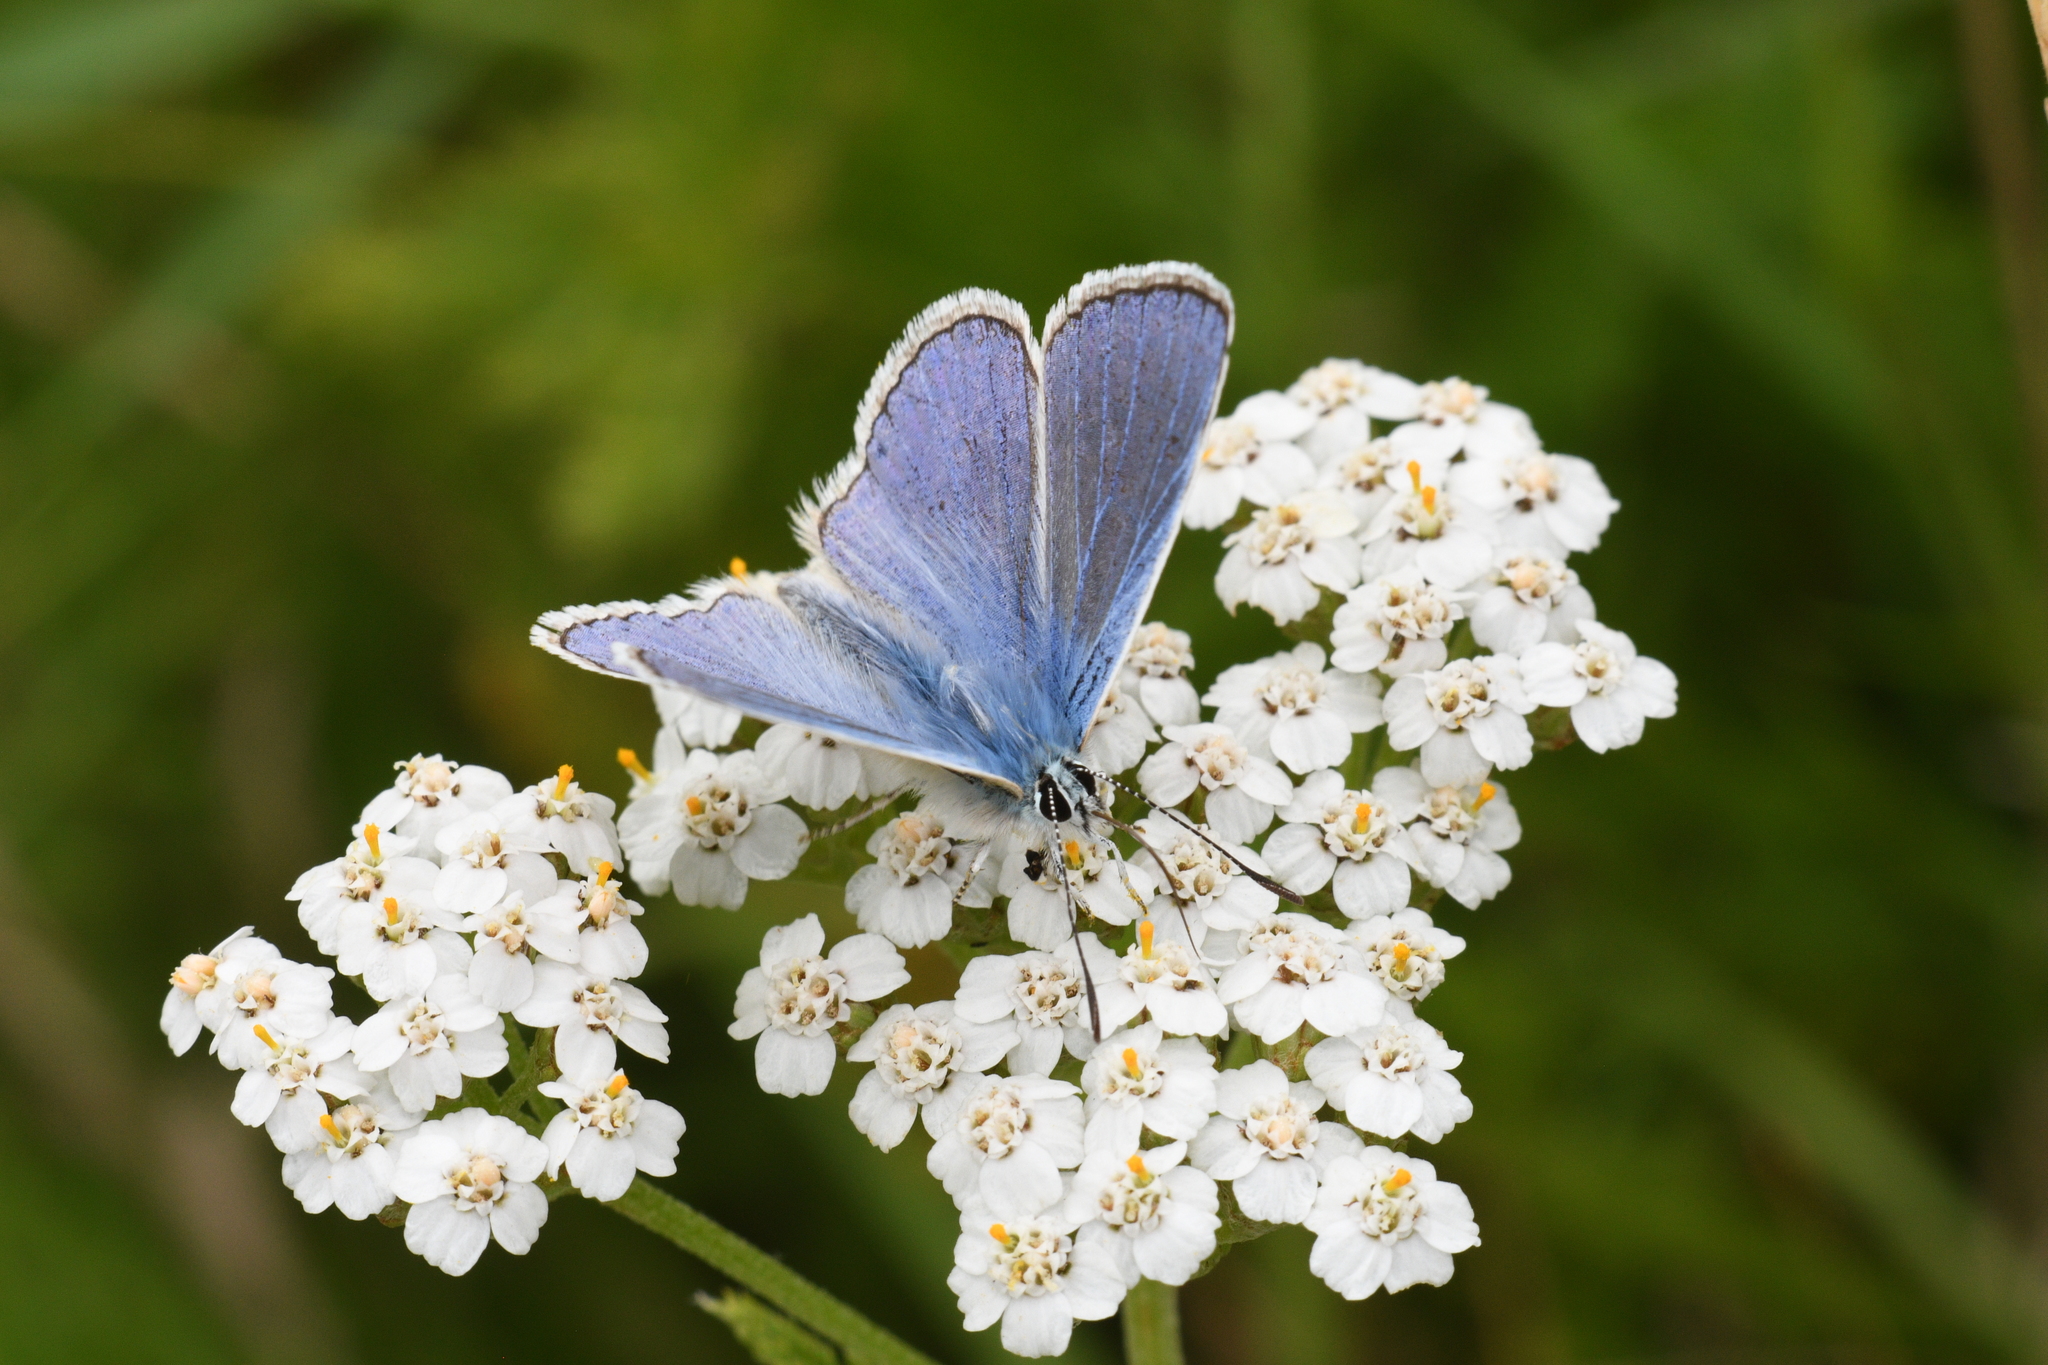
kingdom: Animalia
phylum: Arthropoda
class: Insecta
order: Lepidoptera
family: Lycaenidae
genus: Polyommatus
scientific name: Polyommatus icarus
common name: Common blue
